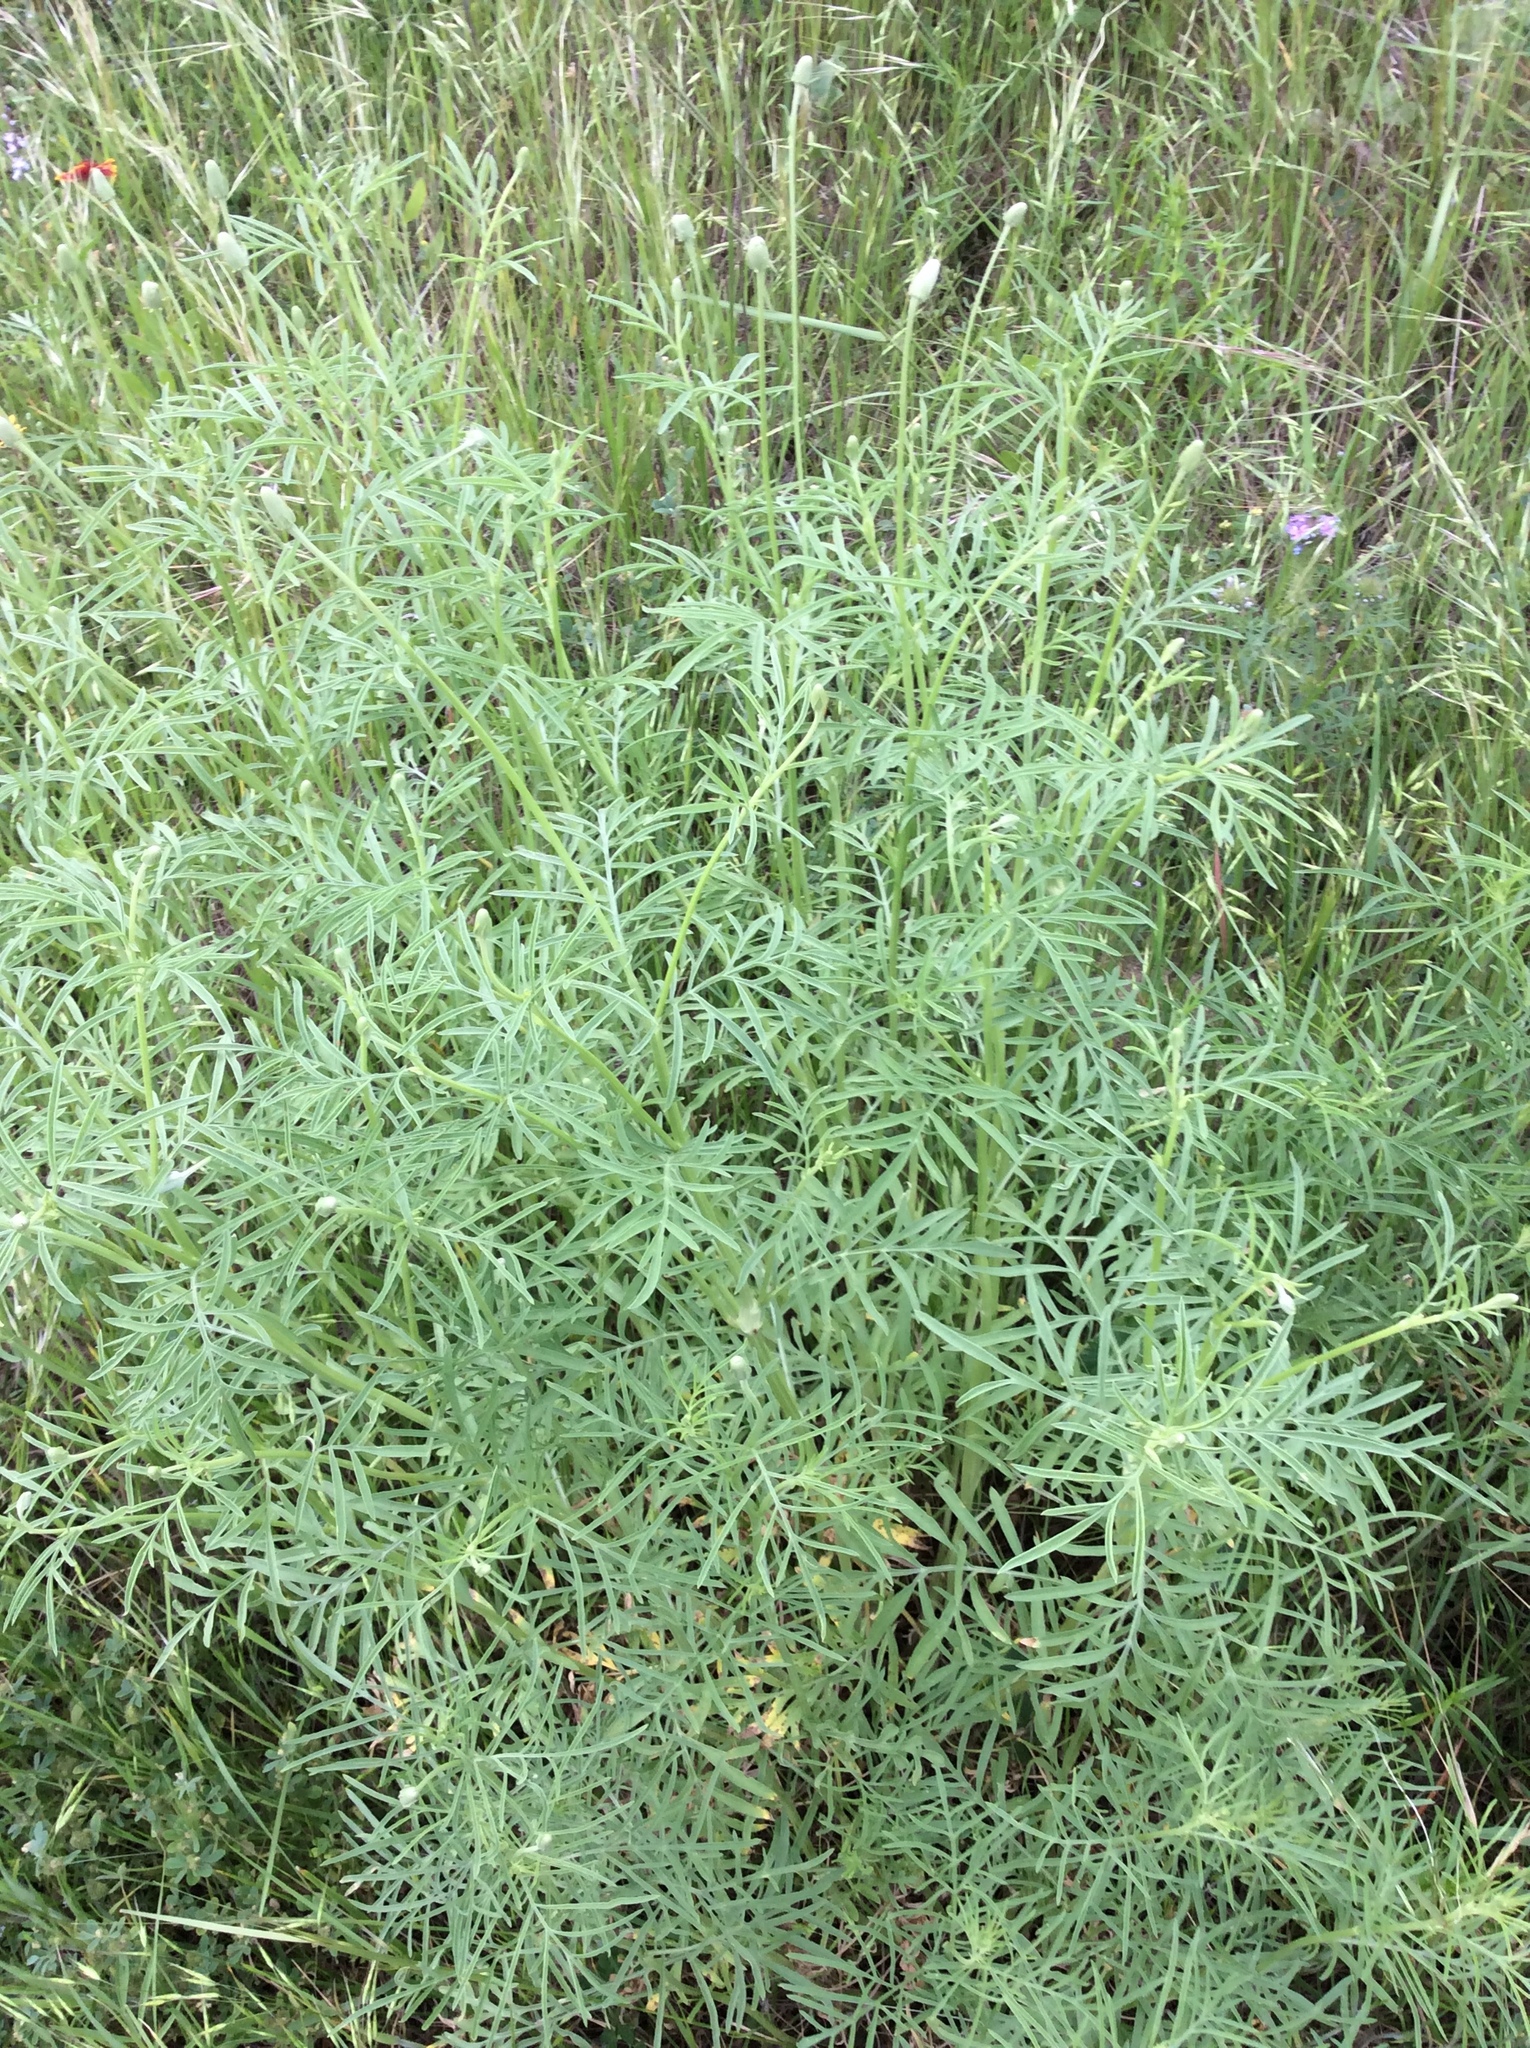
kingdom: Plantae
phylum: Tracheophyta
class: Magnoliopsida
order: Asterales
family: Asteraceae
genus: Ratibida
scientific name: Ratibida columnifera
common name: Prairie coneflower
